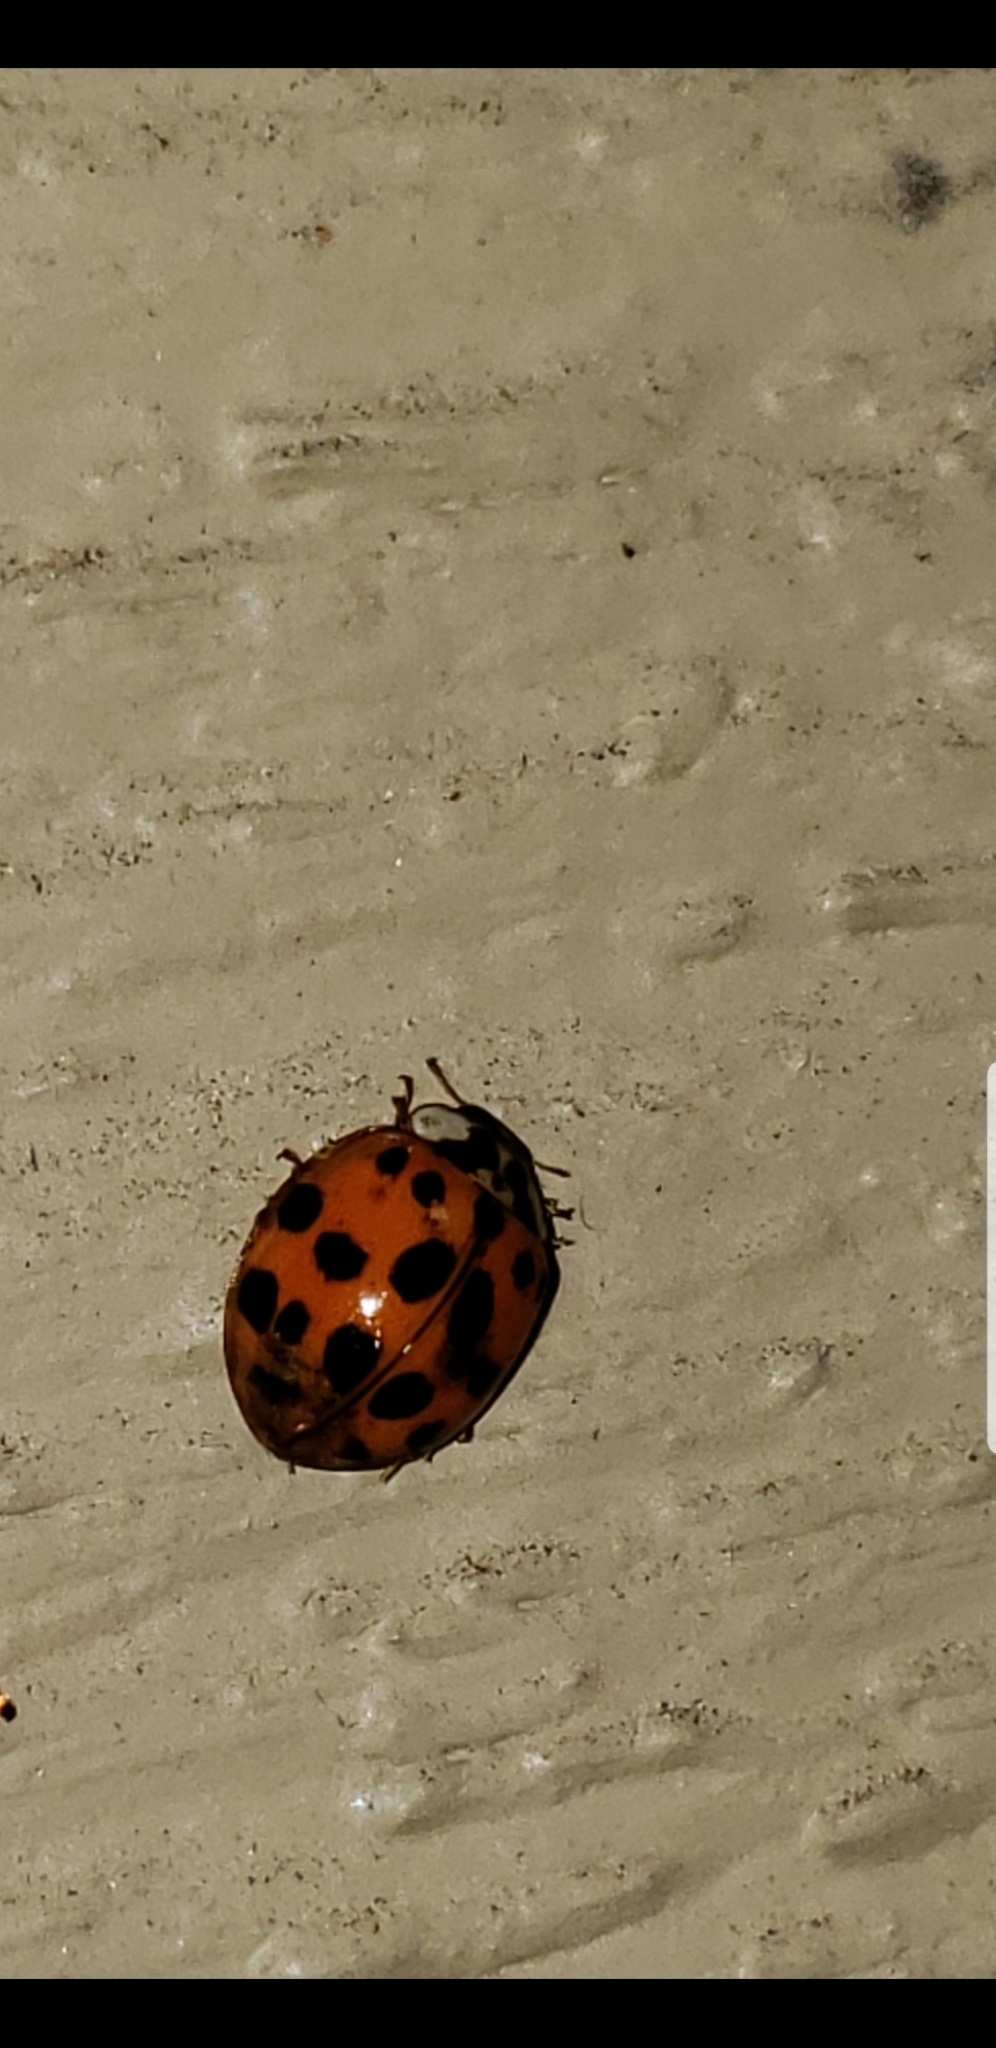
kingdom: Animalia
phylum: Arthropoda
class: Insecta
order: Coleoptera
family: Coccinellidae
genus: Harmonia
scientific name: Harmonia axyridis
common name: Harlequin ladybird
